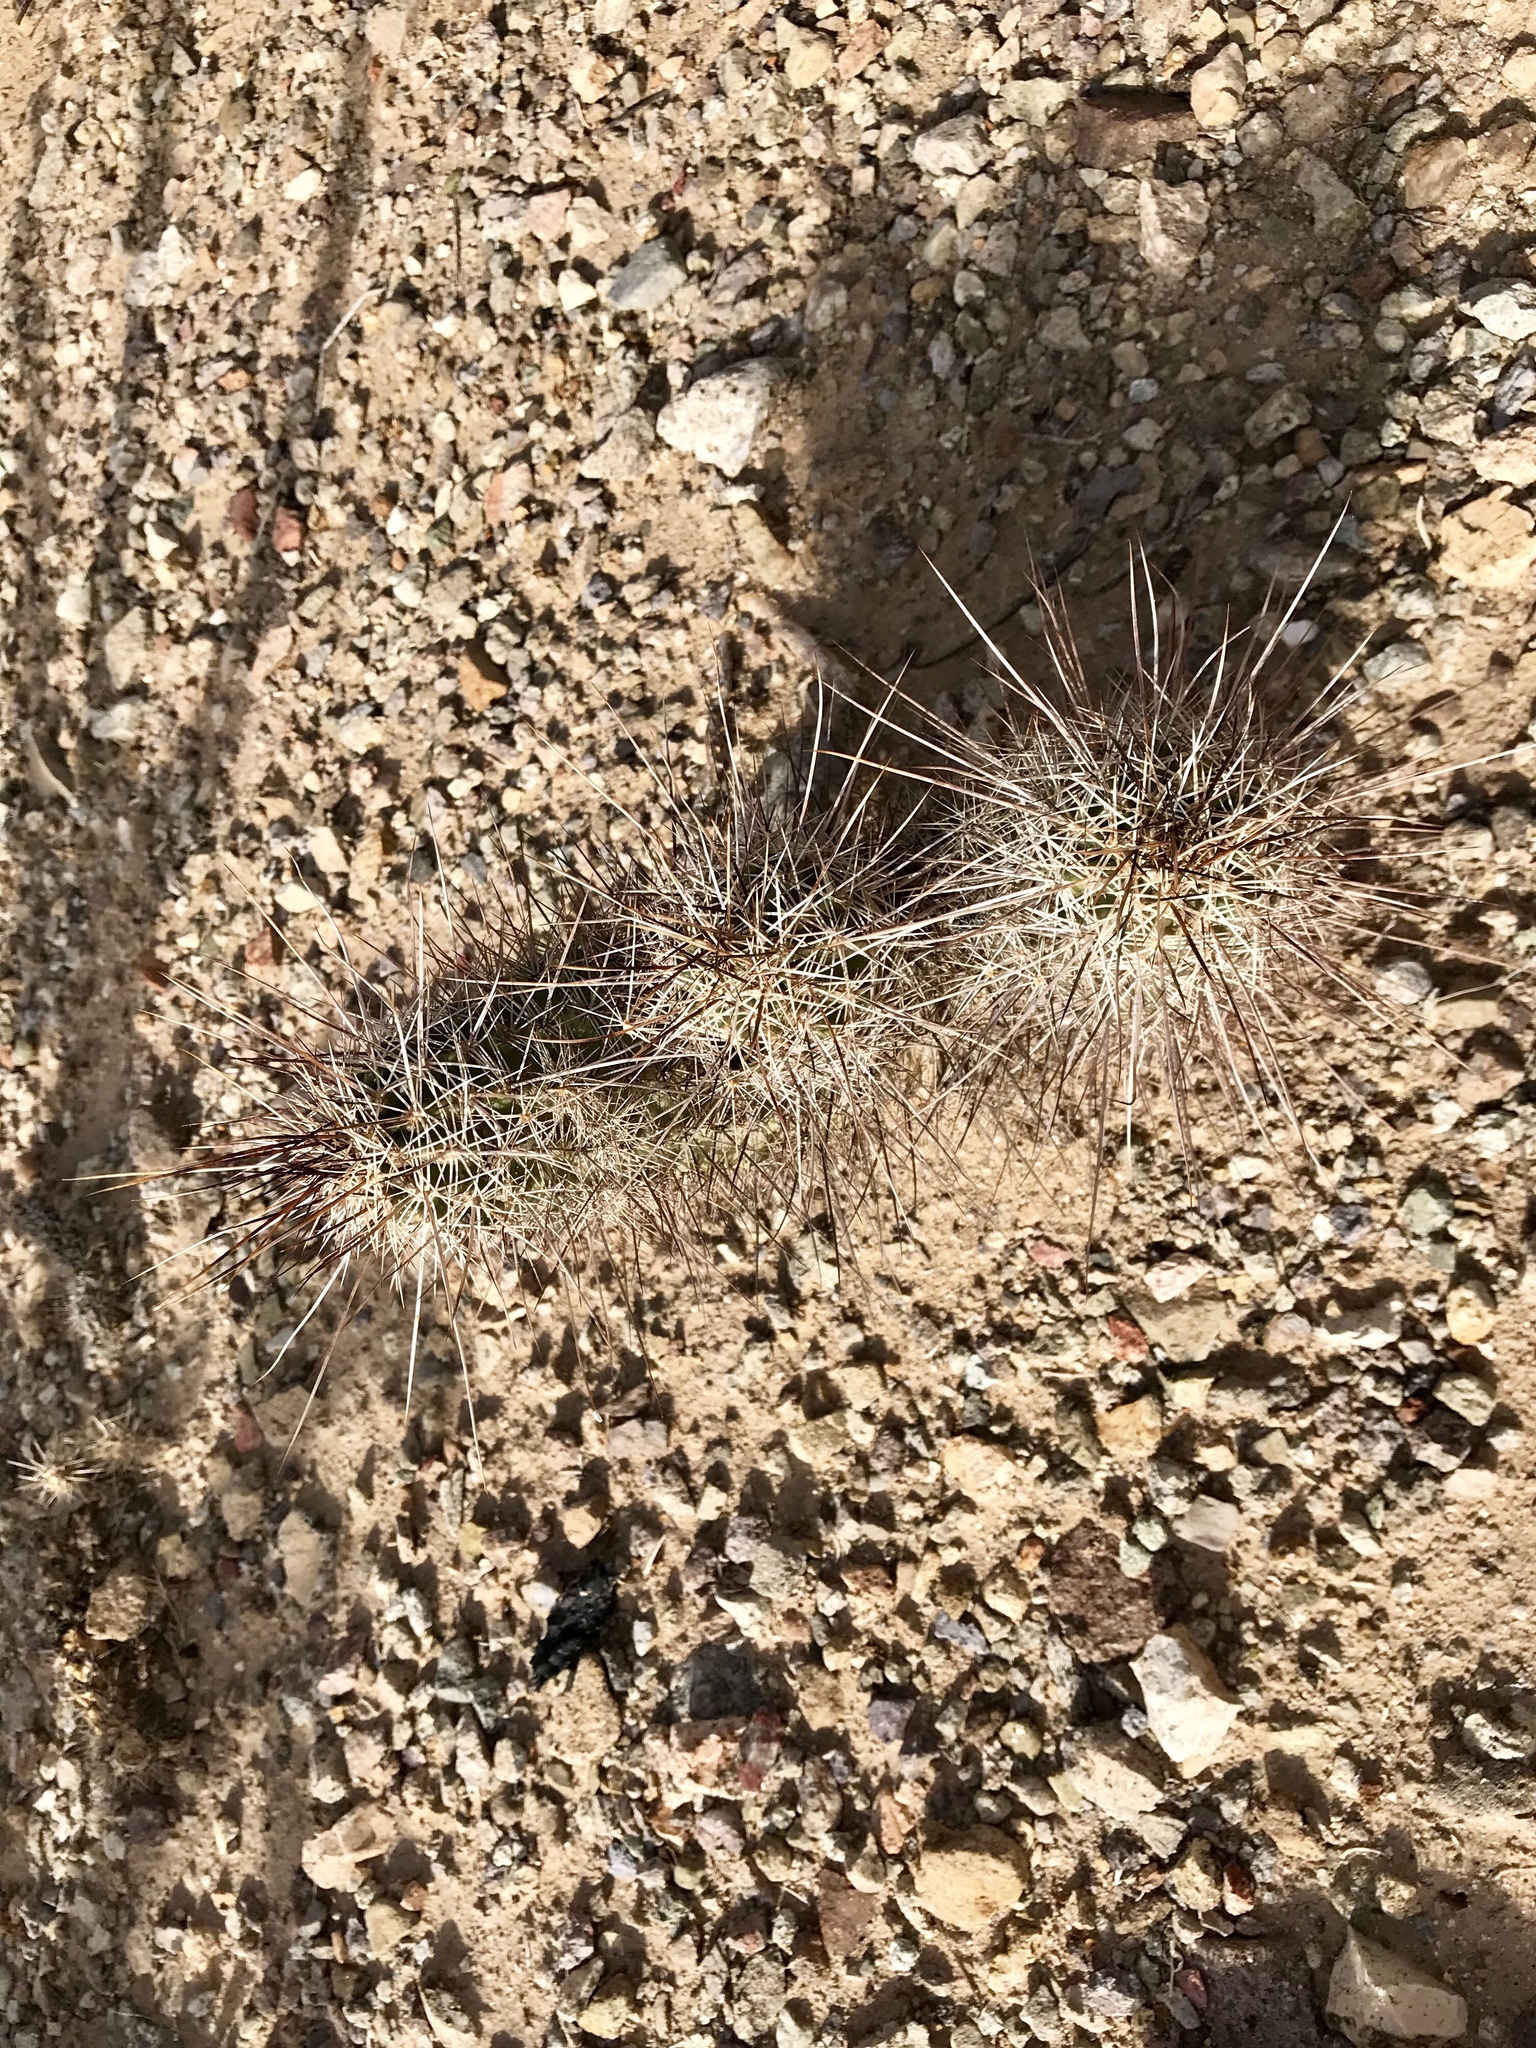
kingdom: Plantae
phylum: Tracheophyta
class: Magnoliopsida
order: Caryophyllales
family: Cactaceae
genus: Echinocereus
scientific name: Echinocereus fasciculatus
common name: Bundle hedgehog
